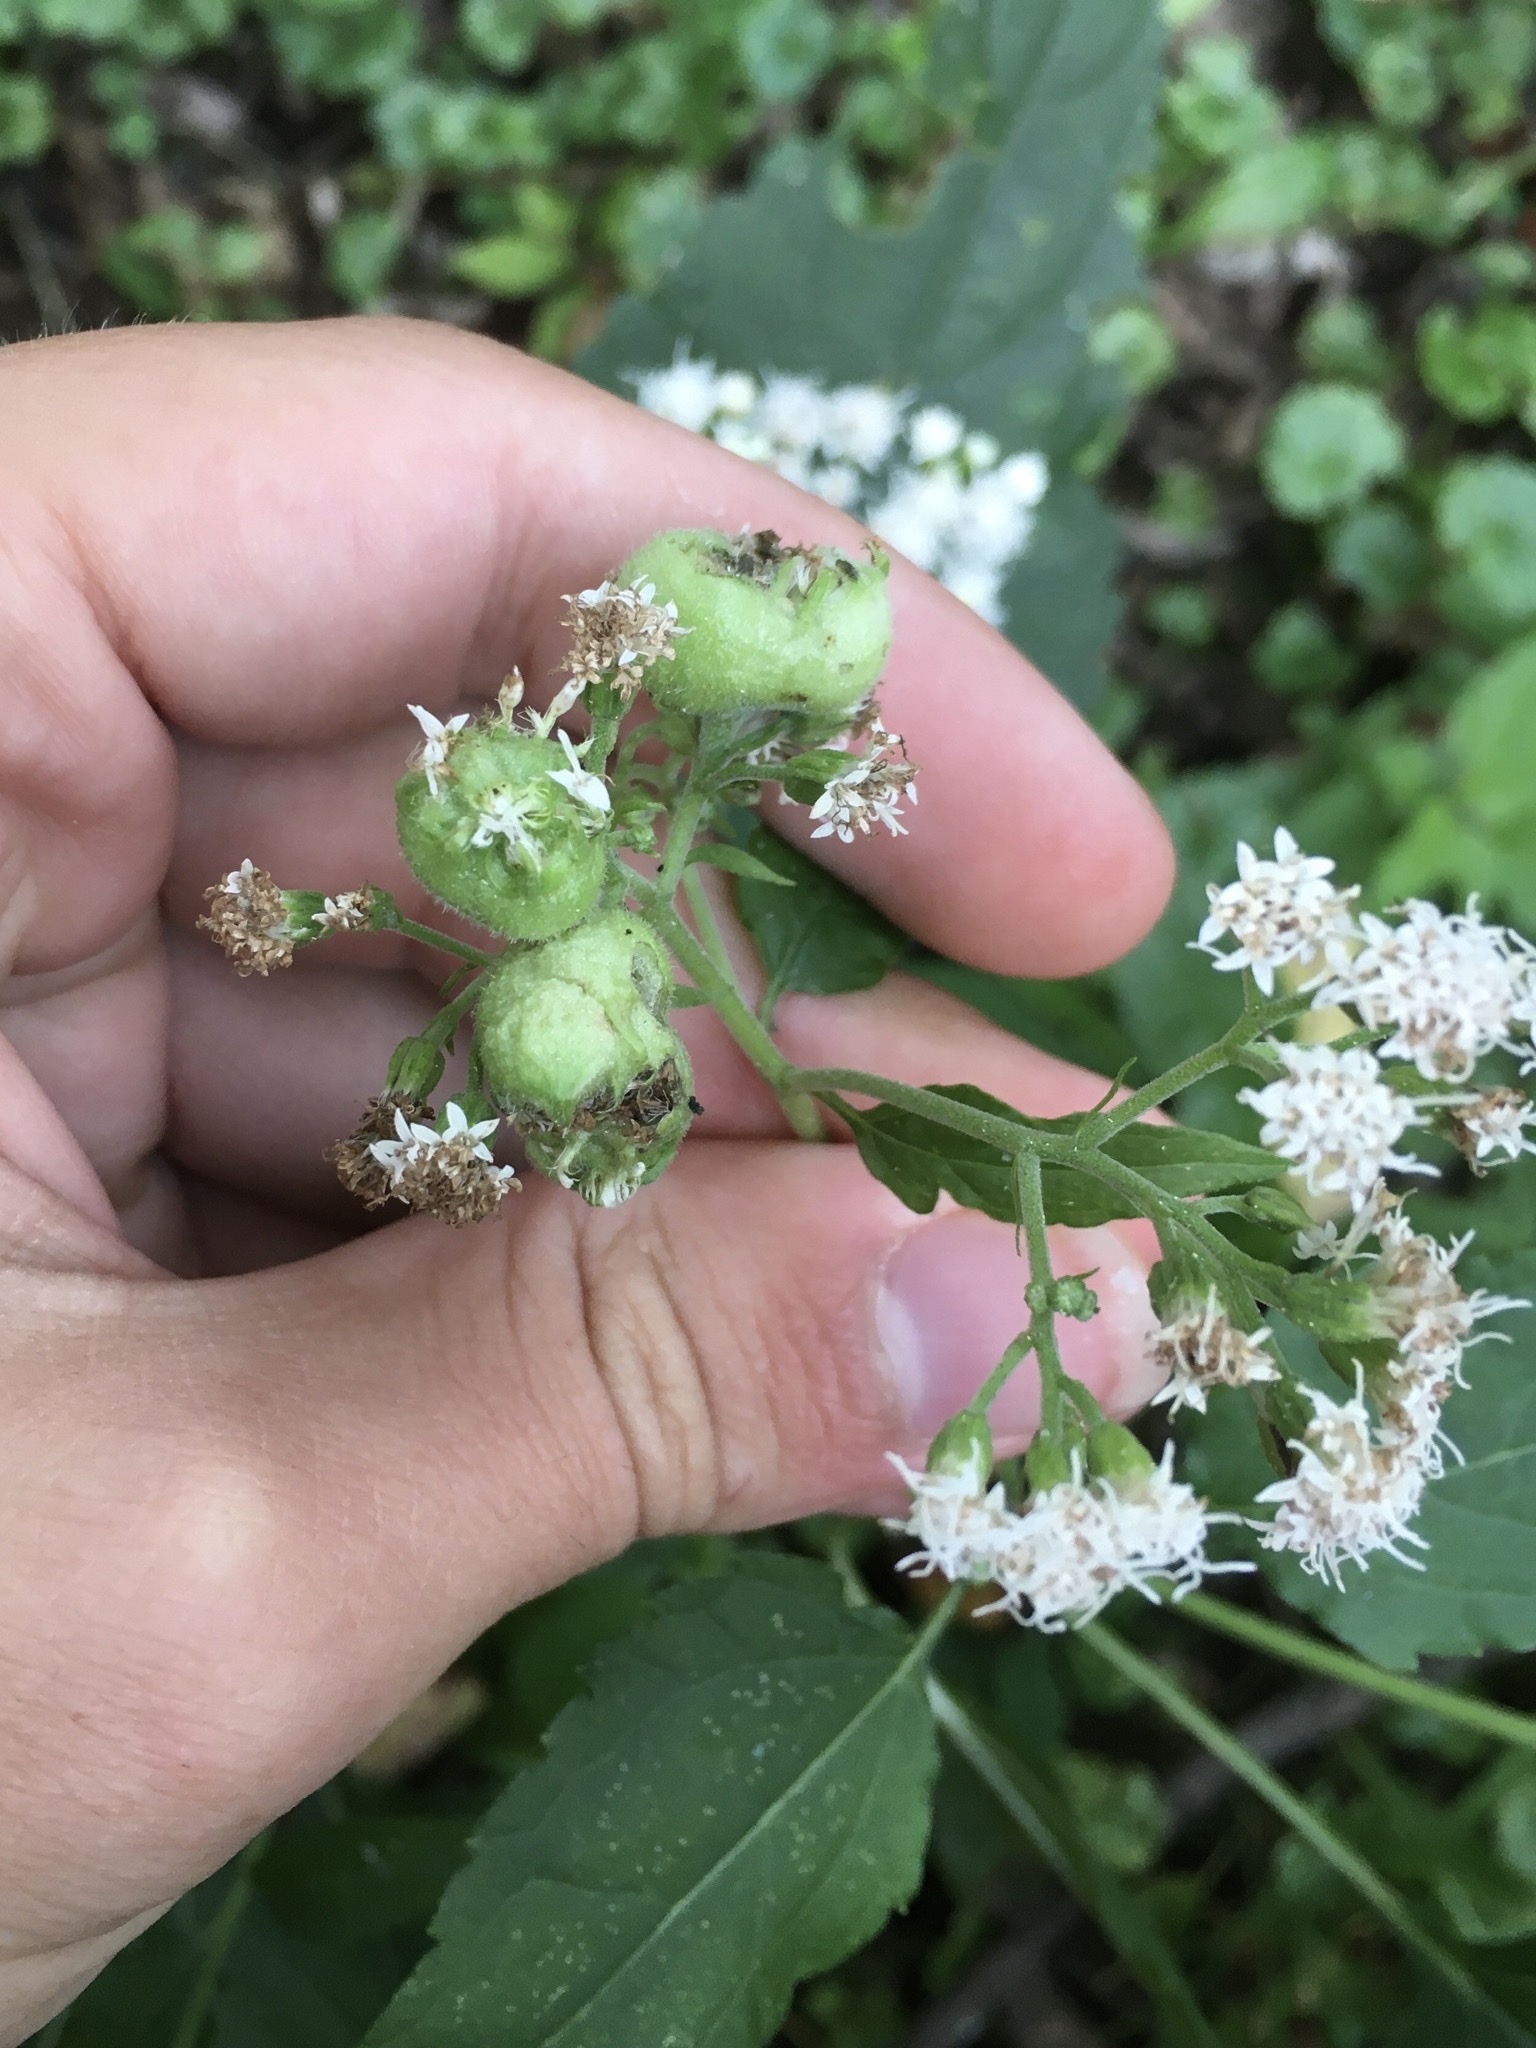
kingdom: Animalia
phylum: Arthropoda
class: Insecta
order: Diptera
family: Cecidomyiidae
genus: Schizomyia
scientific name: Schizomyia eupatoriflorae
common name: Boneset flower gall midge
